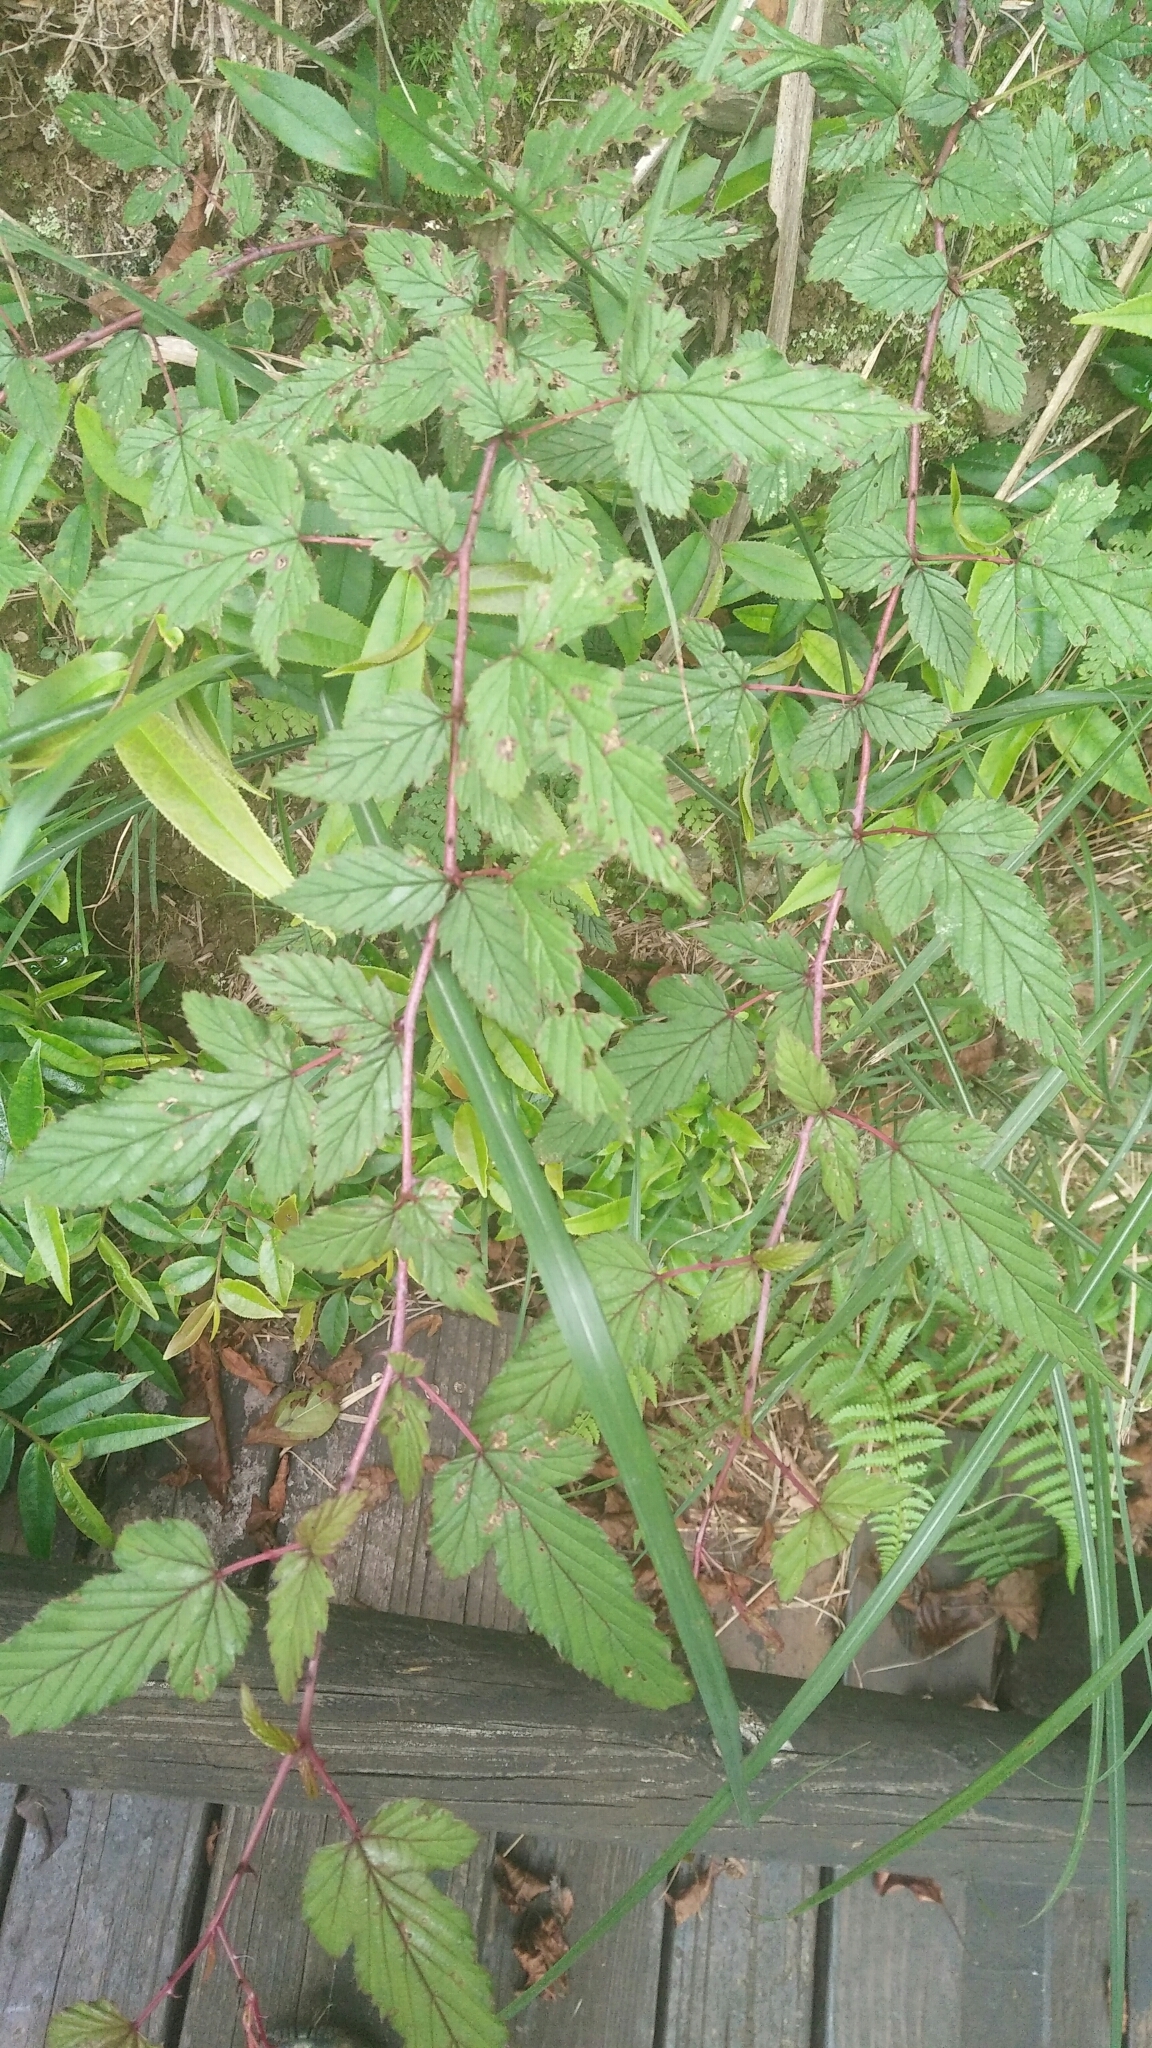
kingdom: Plantae
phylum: Tracheophyta
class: Magnoliopsida
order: Rosales
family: Rosaceae
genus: Rubus
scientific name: Rubus subcrataegifolius
